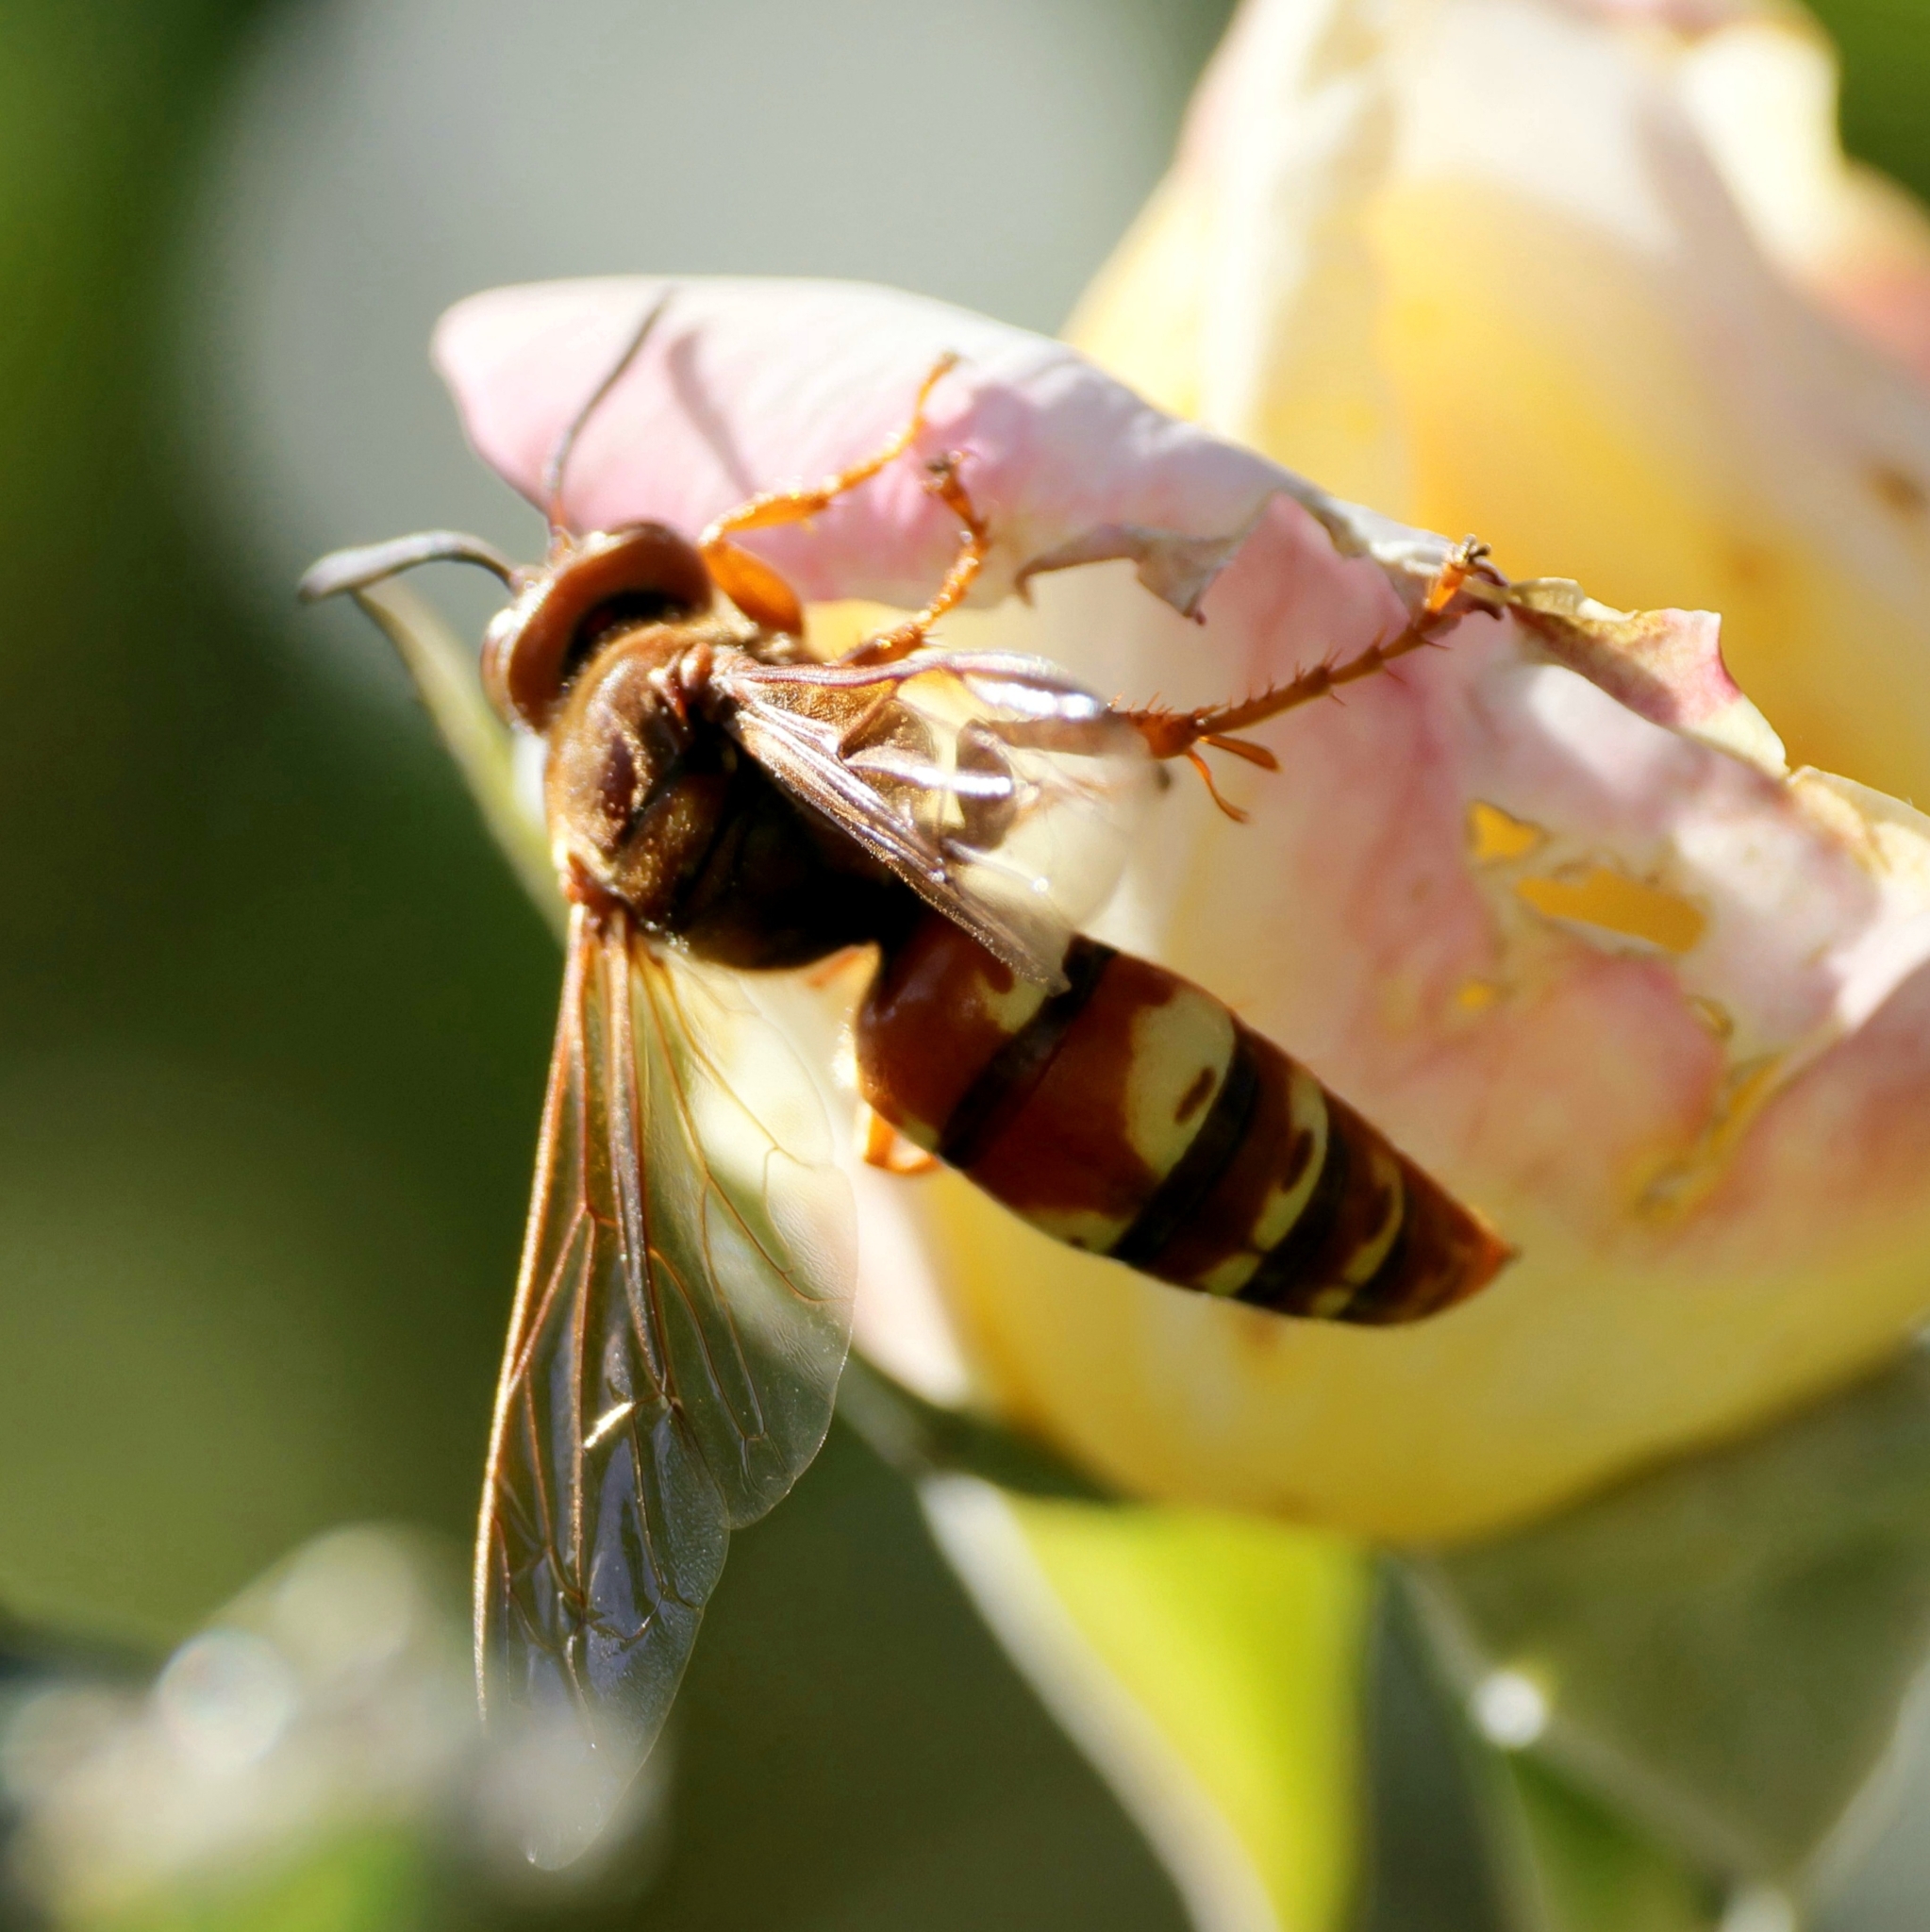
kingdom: Animalia
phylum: Arthropoda
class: Insecta
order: Hymenoptera
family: Crabronidae
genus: Sphecius
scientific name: Sphecius grandis
